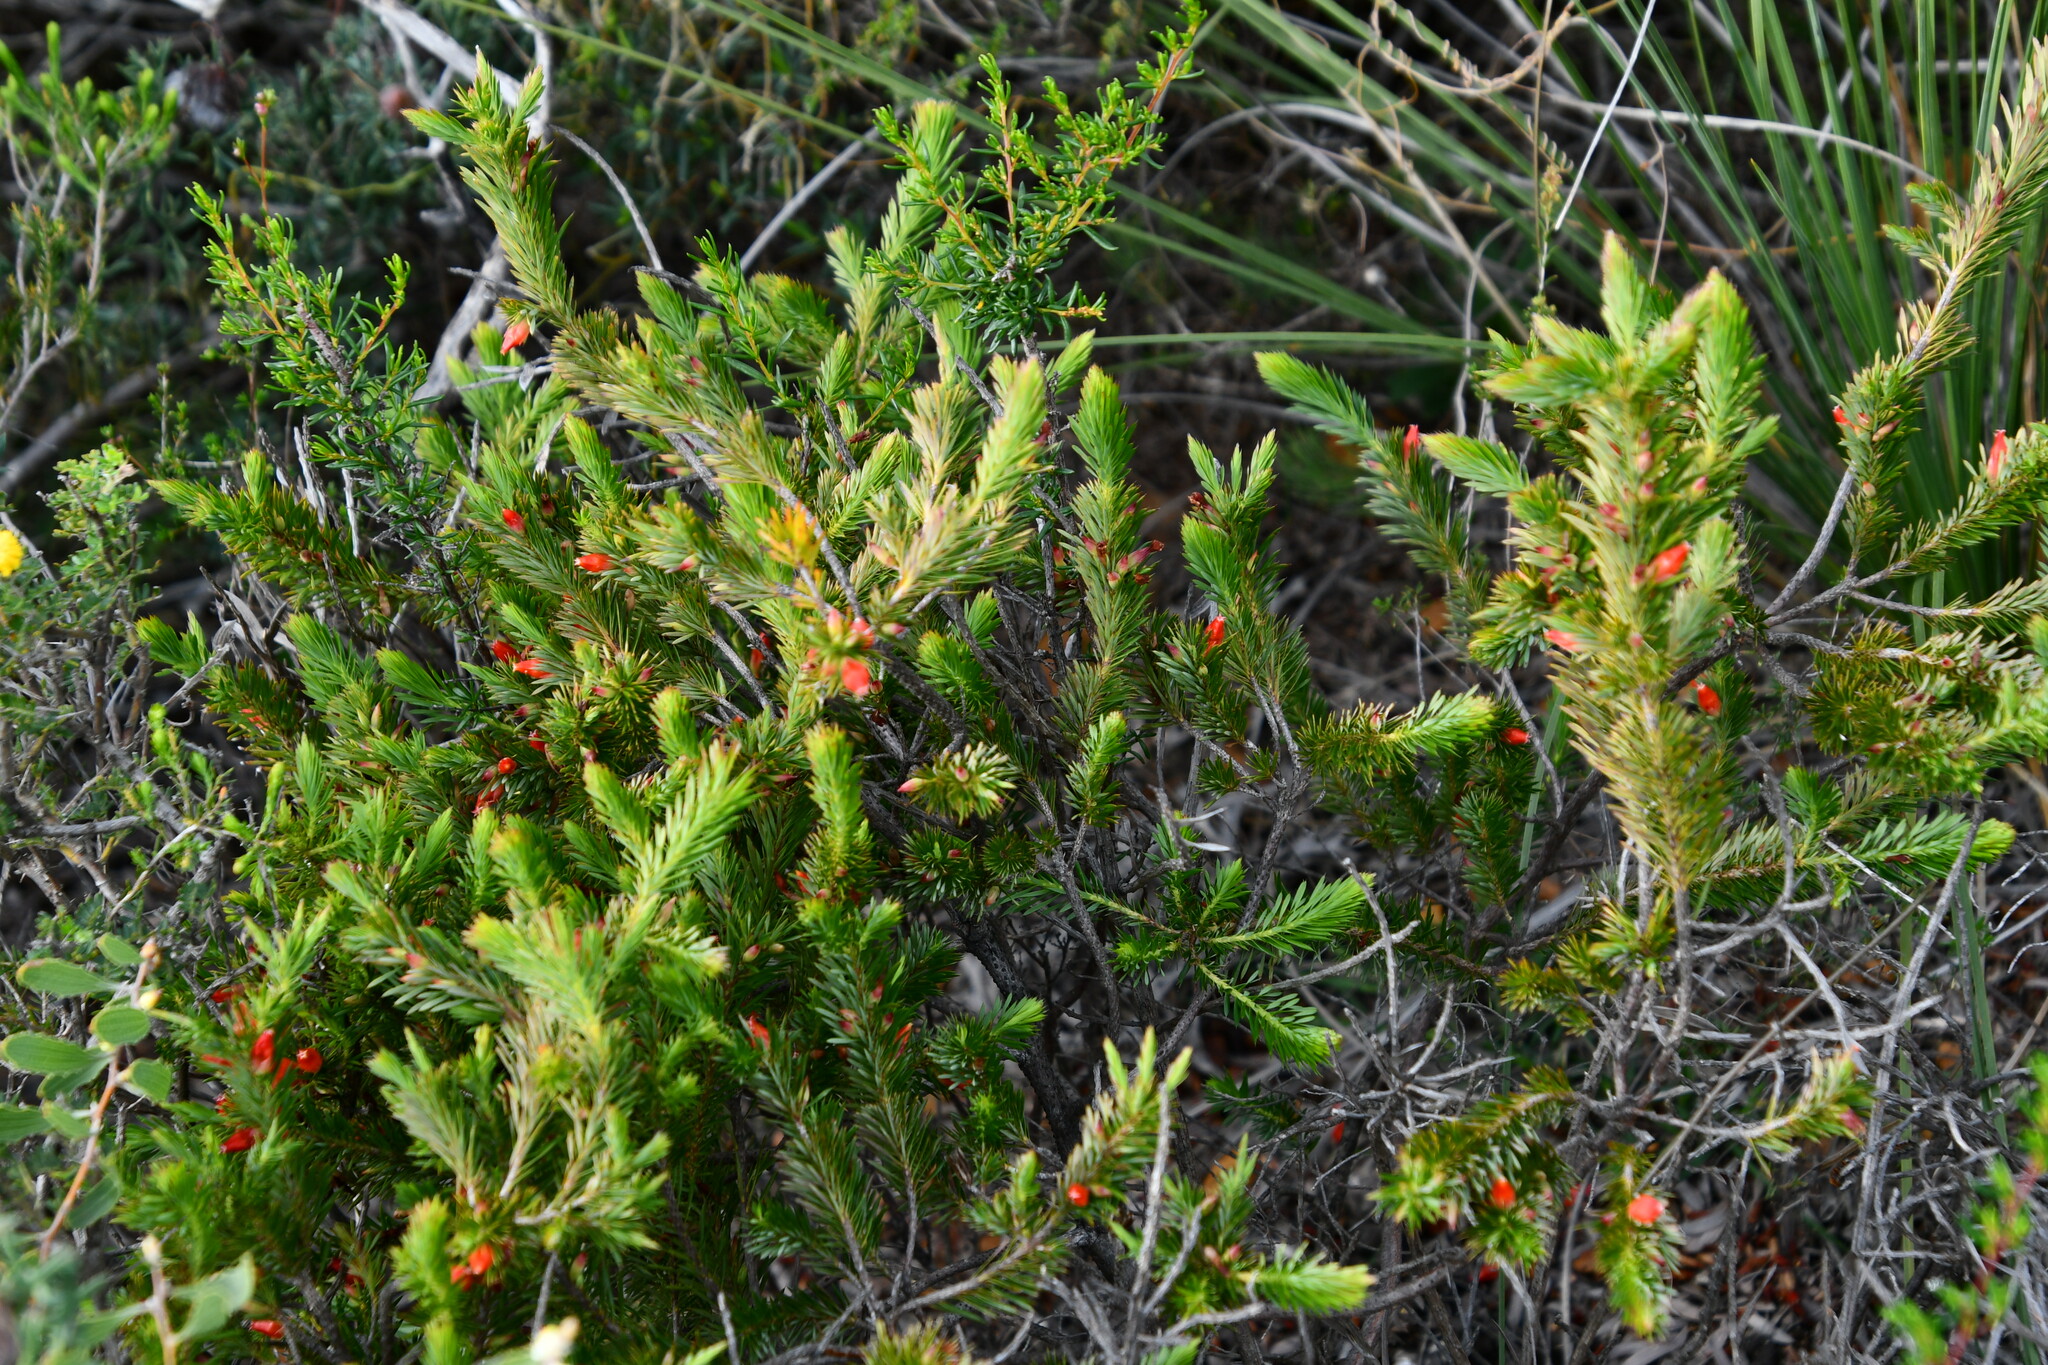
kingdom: Plantae
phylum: Tracheophyta
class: Magnoliopsida
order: Ericales
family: Ericaceae
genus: Styphelia
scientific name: Styphelia tortifolia
